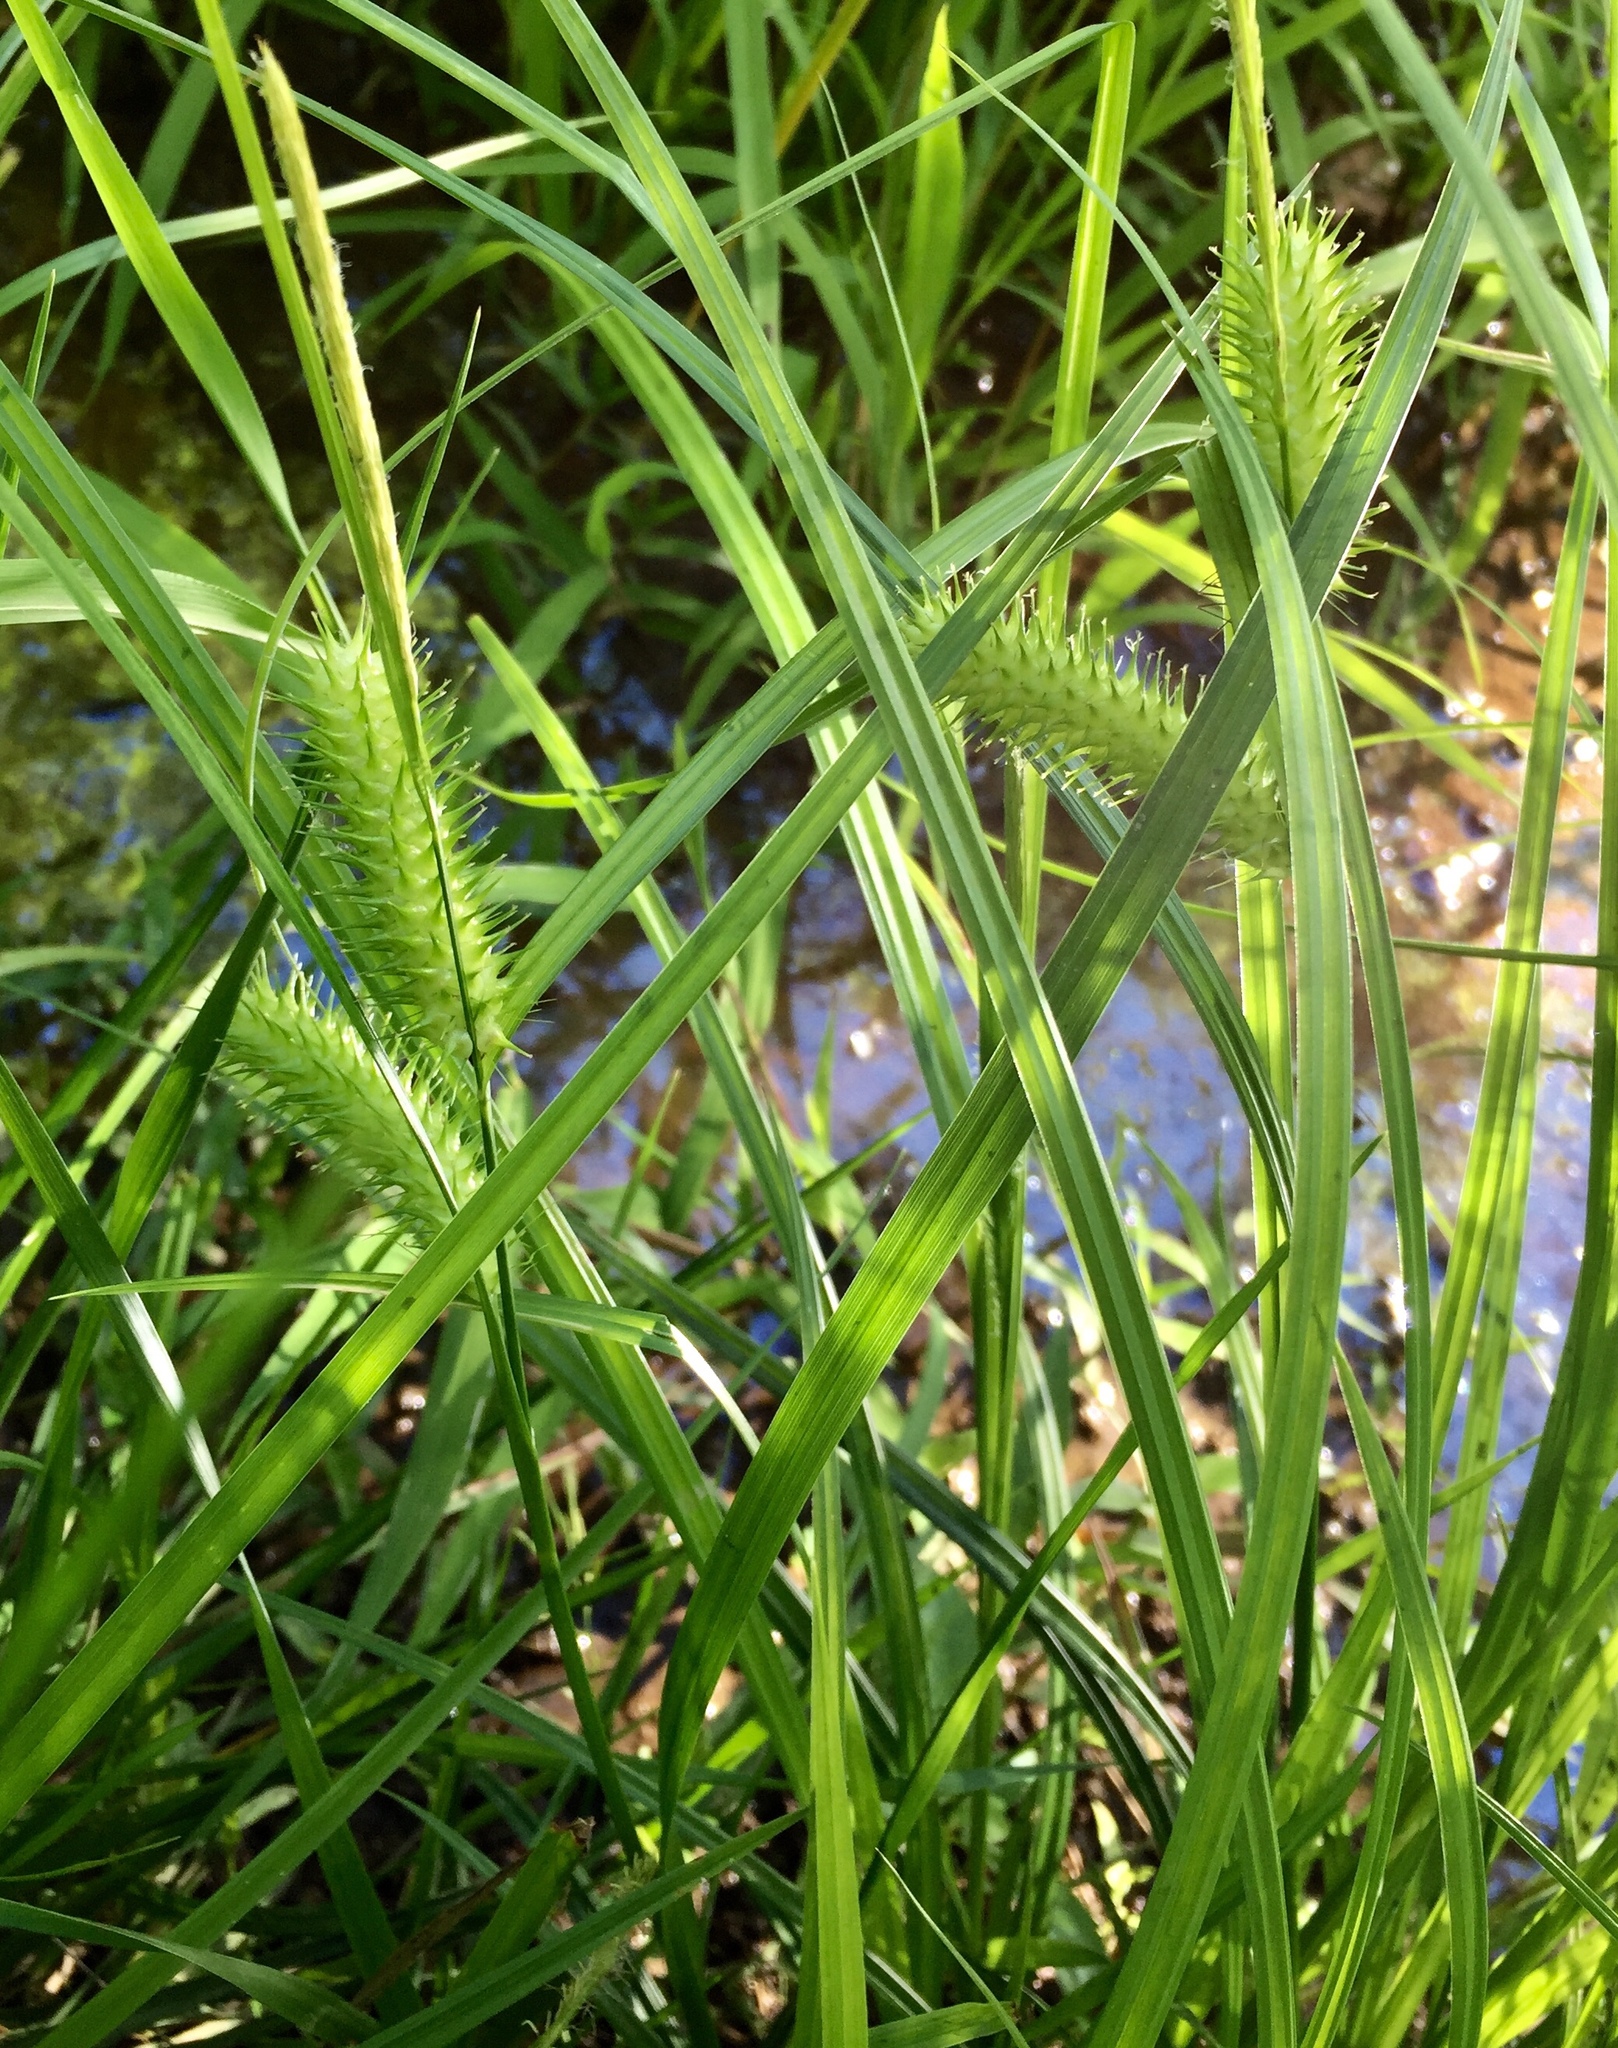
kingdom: Plantae
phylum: Tracheophyta
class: Liliopsida
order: Poales
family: Cyperaceae
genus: Carex
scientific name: Carex lurida
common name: Sallow sedge
